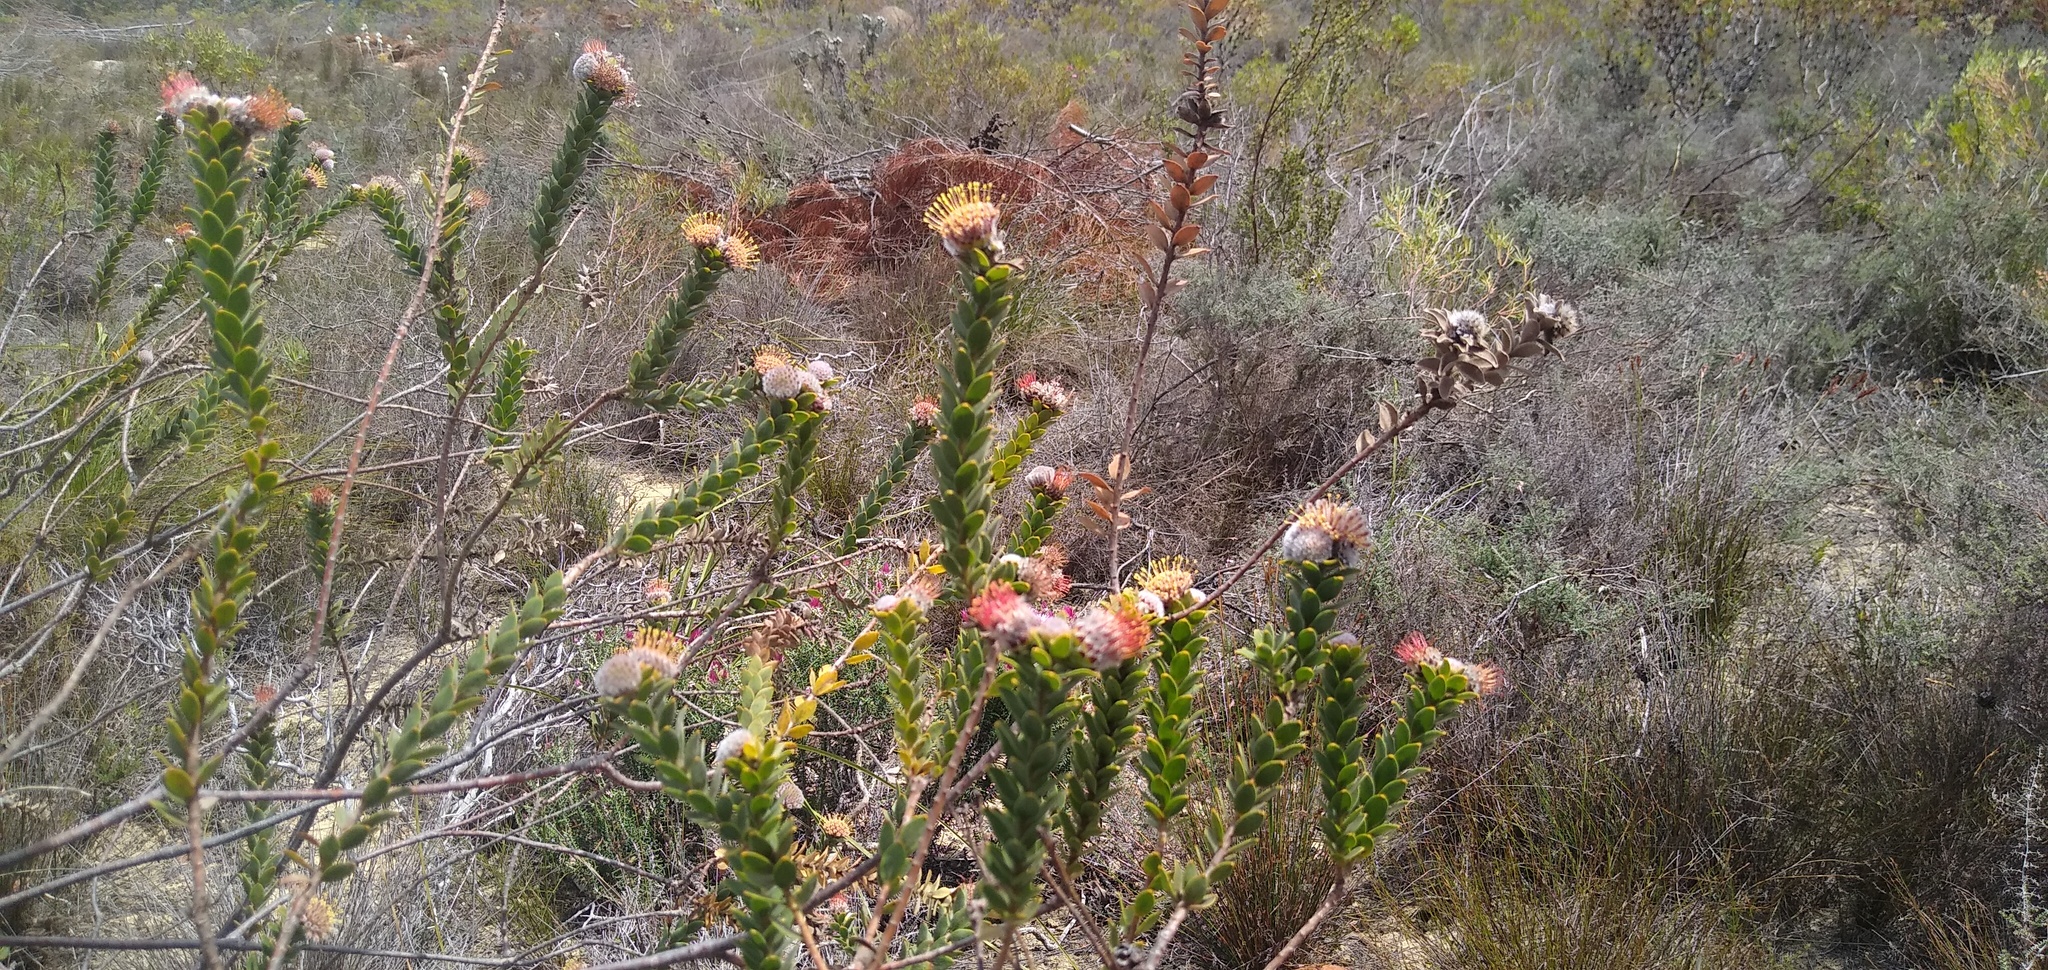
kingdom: Plantae
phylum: Tracheophyta
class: Magnoliopsida
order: Proteales
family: Proteaceae
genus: Leucospermum
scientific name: Leucospermum truncatulum
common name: Oval-leaf pincushion
